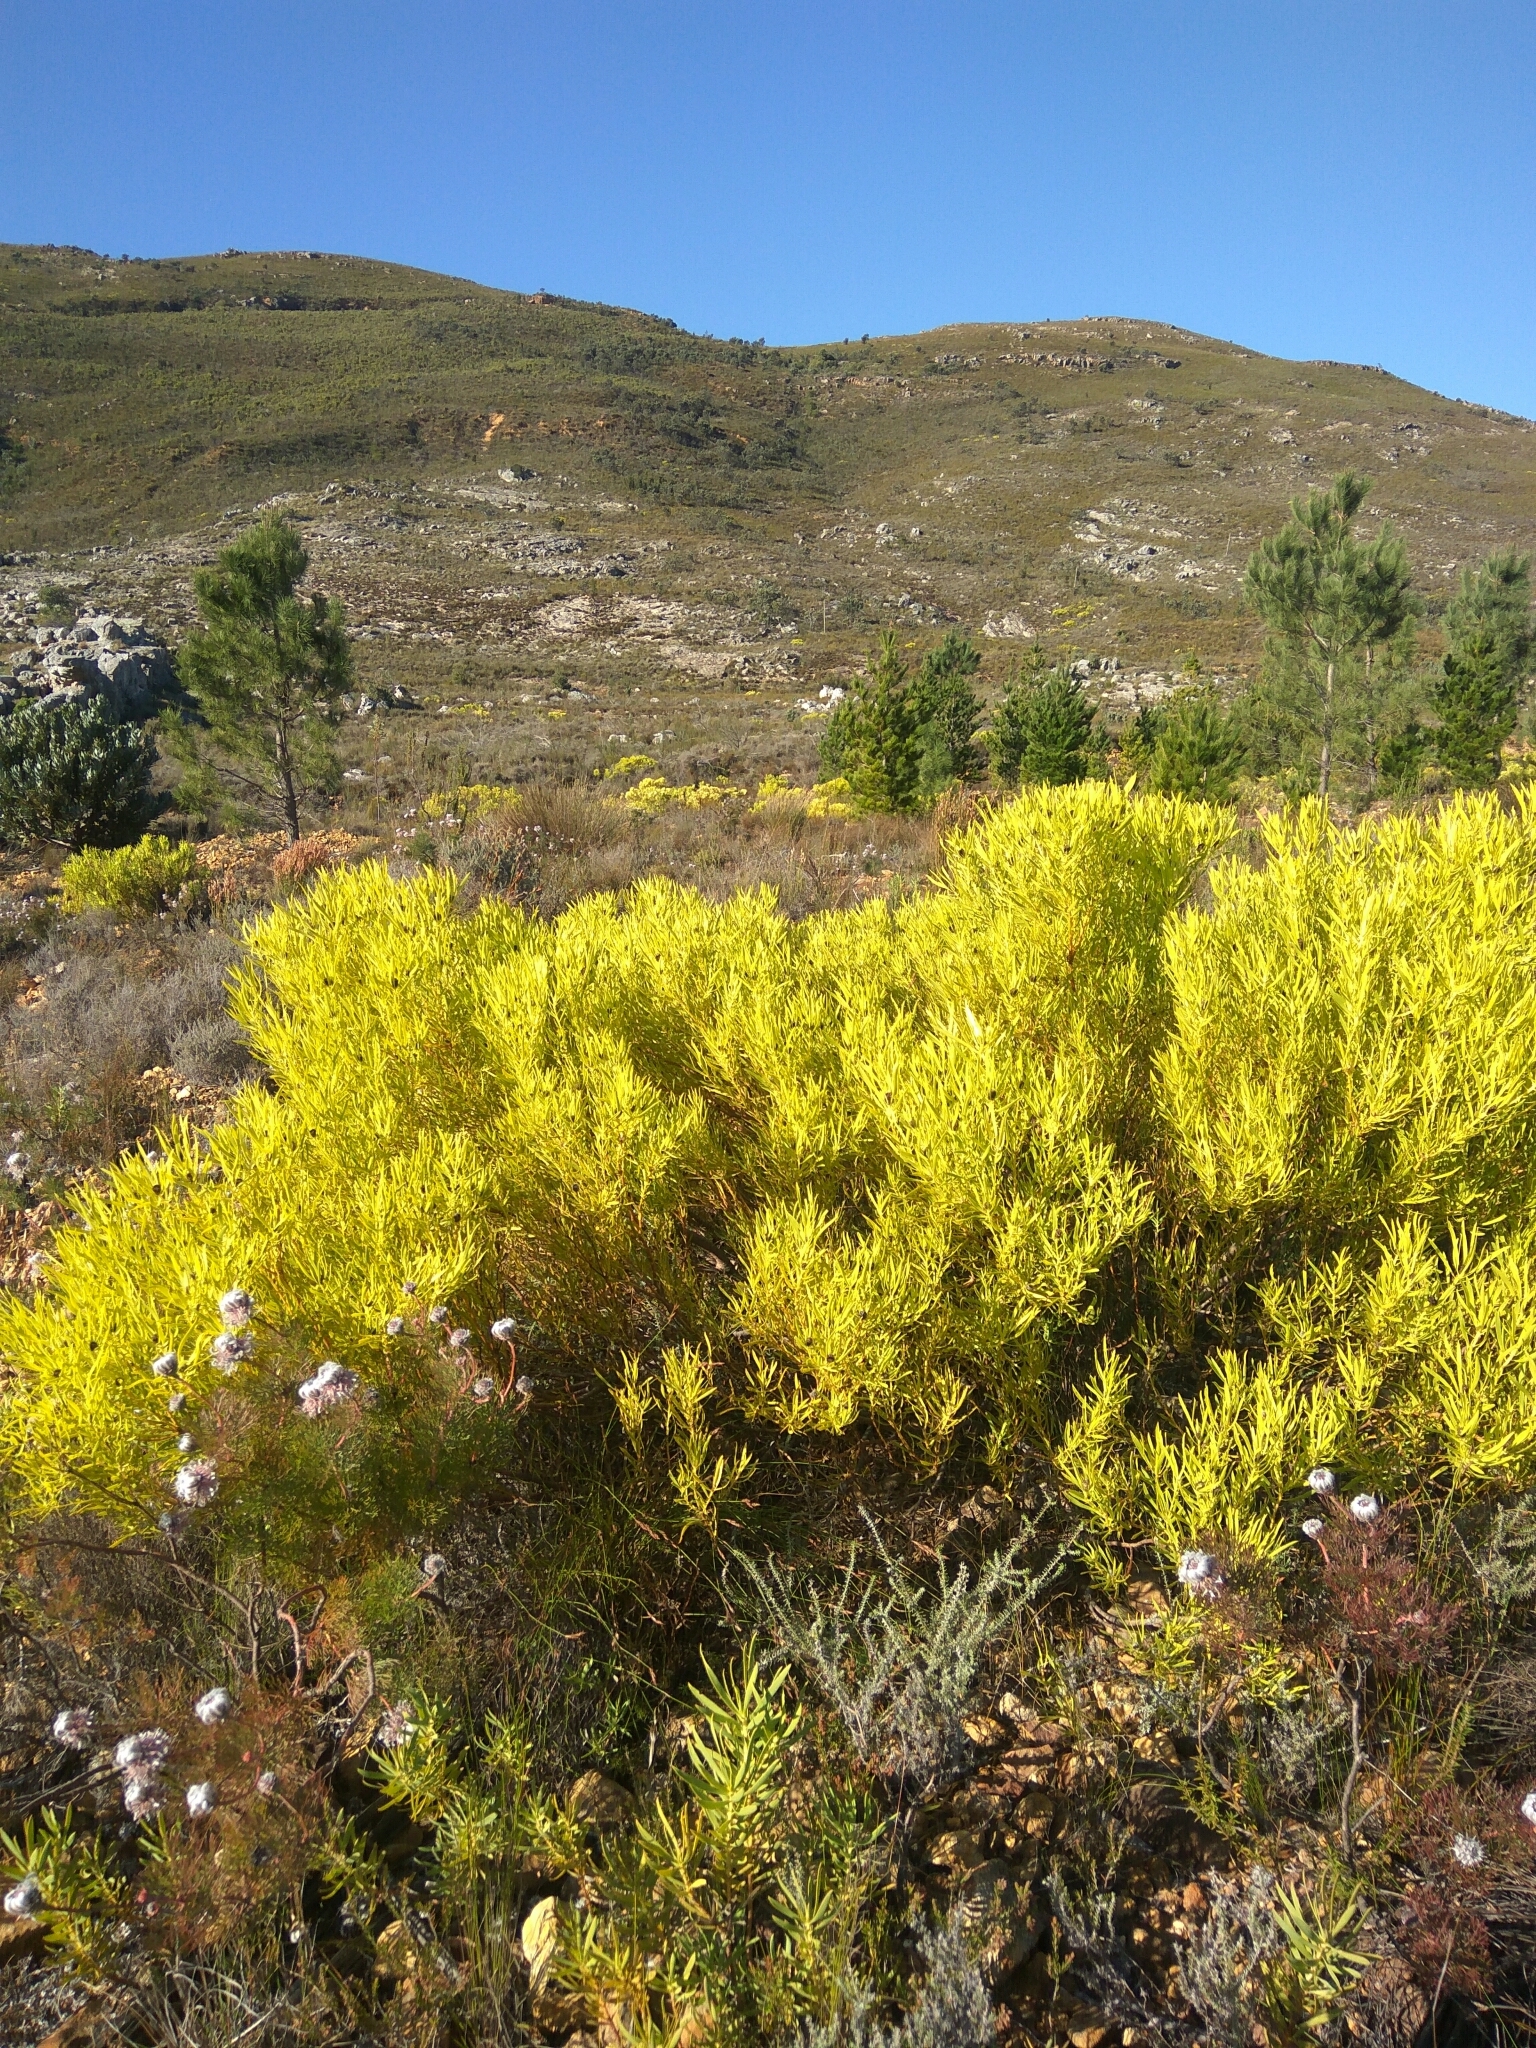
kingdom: Plantae
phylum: Tracheophyta
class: Magnoliopsida
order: Proteales
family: Proteaceae
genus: Leucadendron
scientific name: Leucadendron salignum
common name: Common sunshine conebush
